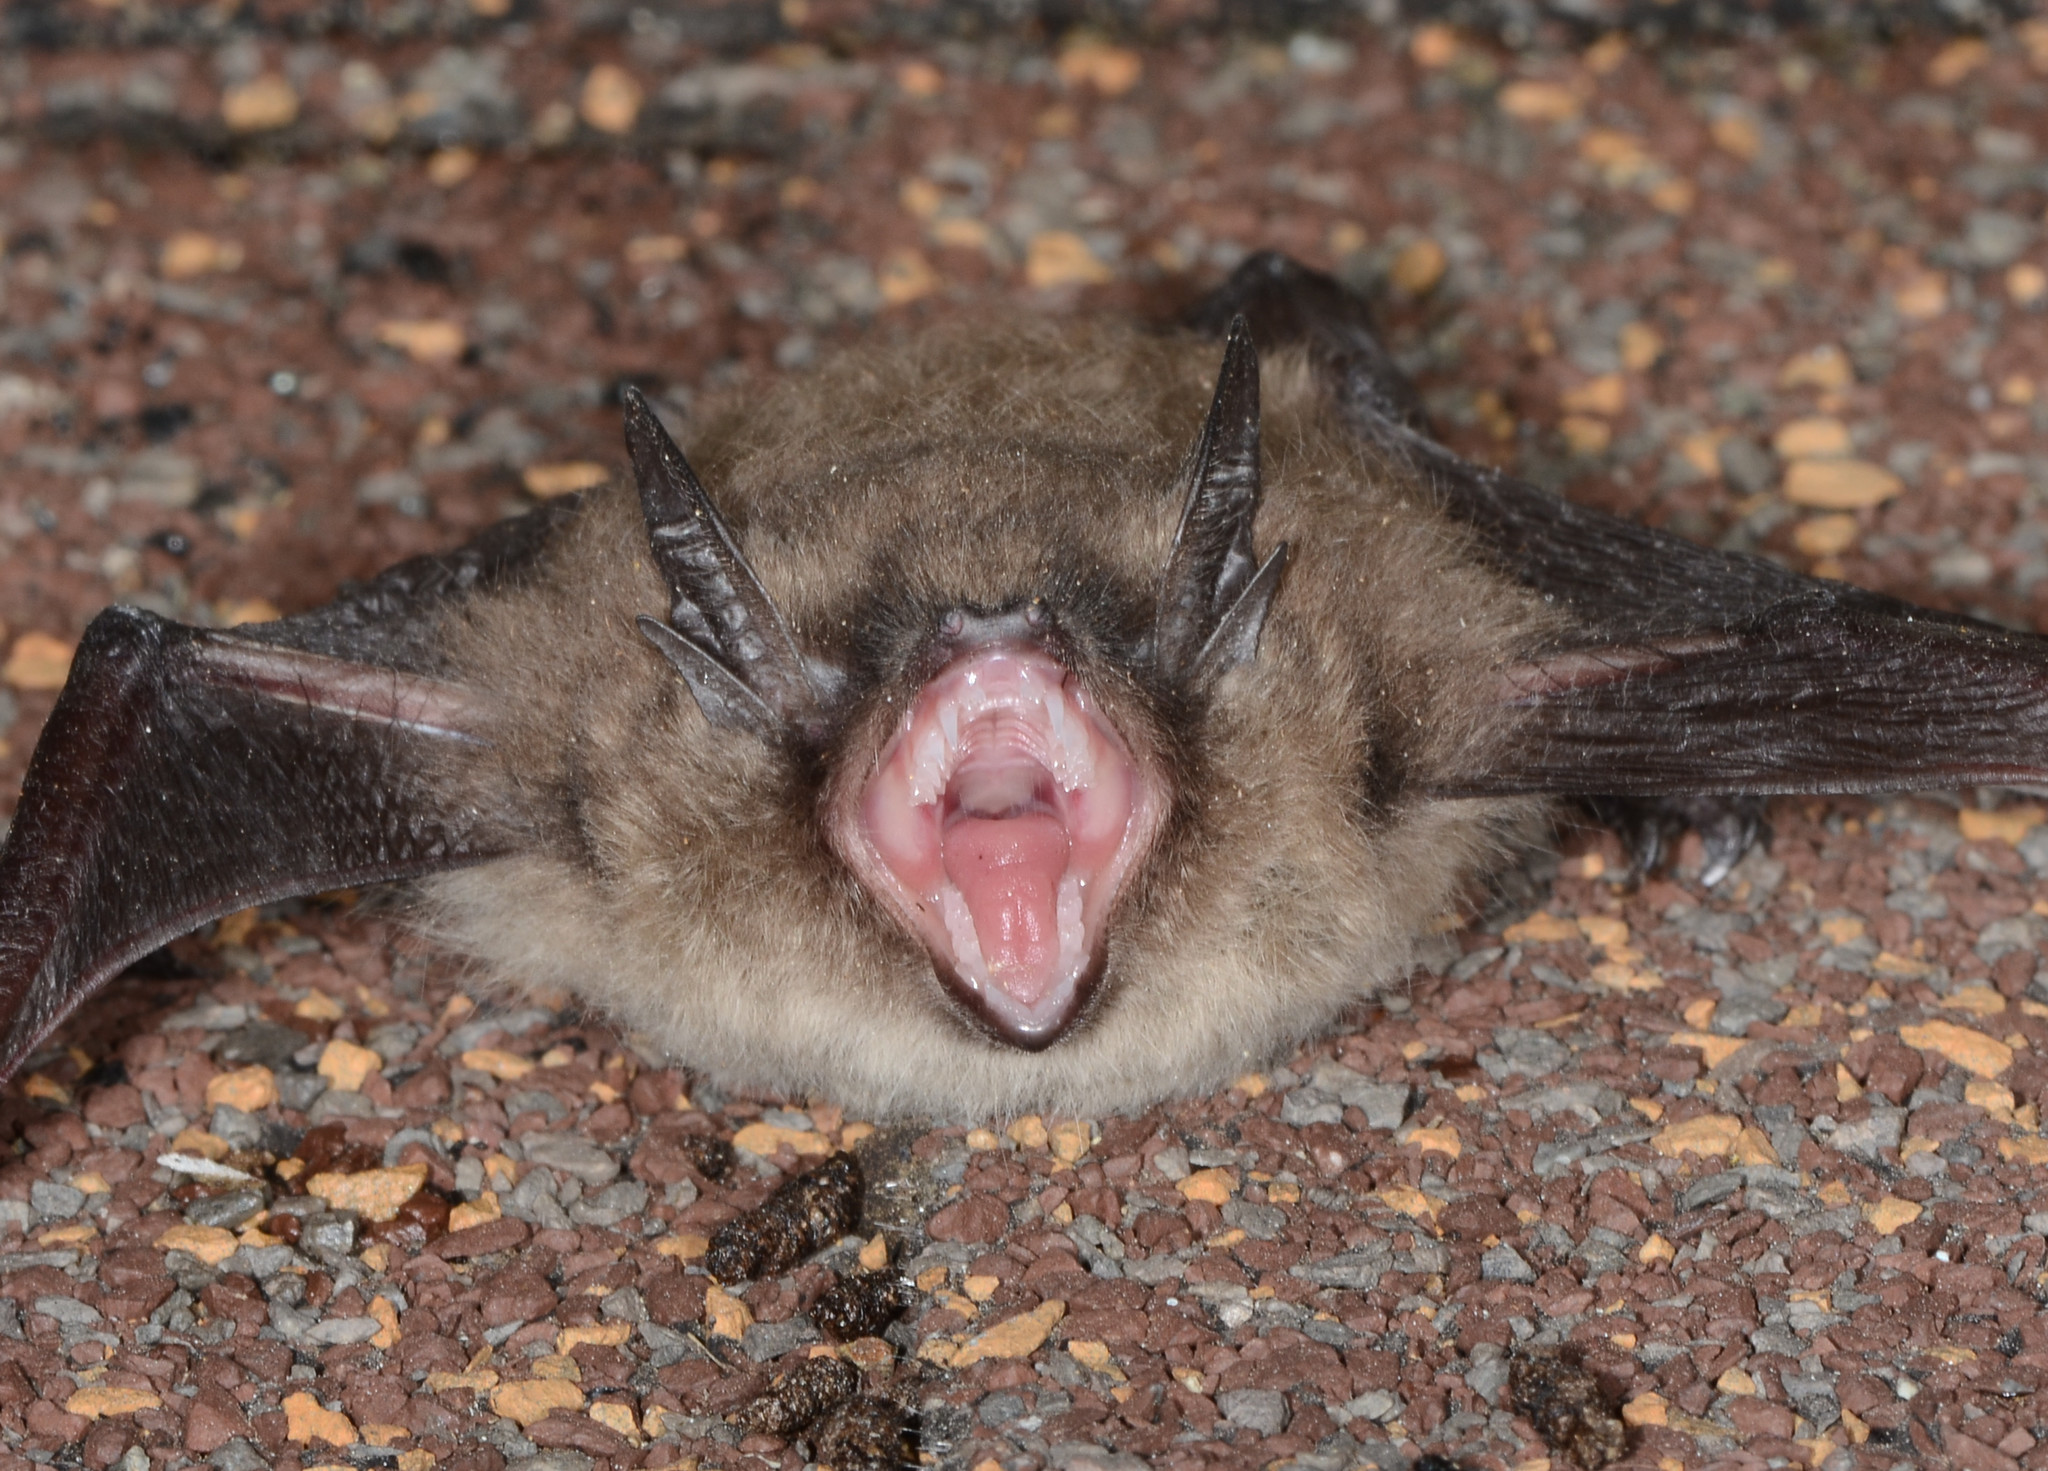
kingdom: Animalia
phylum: Chordata
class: Mammalia
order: Chiroptera
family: Vespertilionidae
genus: Myotis
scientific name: Myotis yumanensis
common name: Yuma myotis
